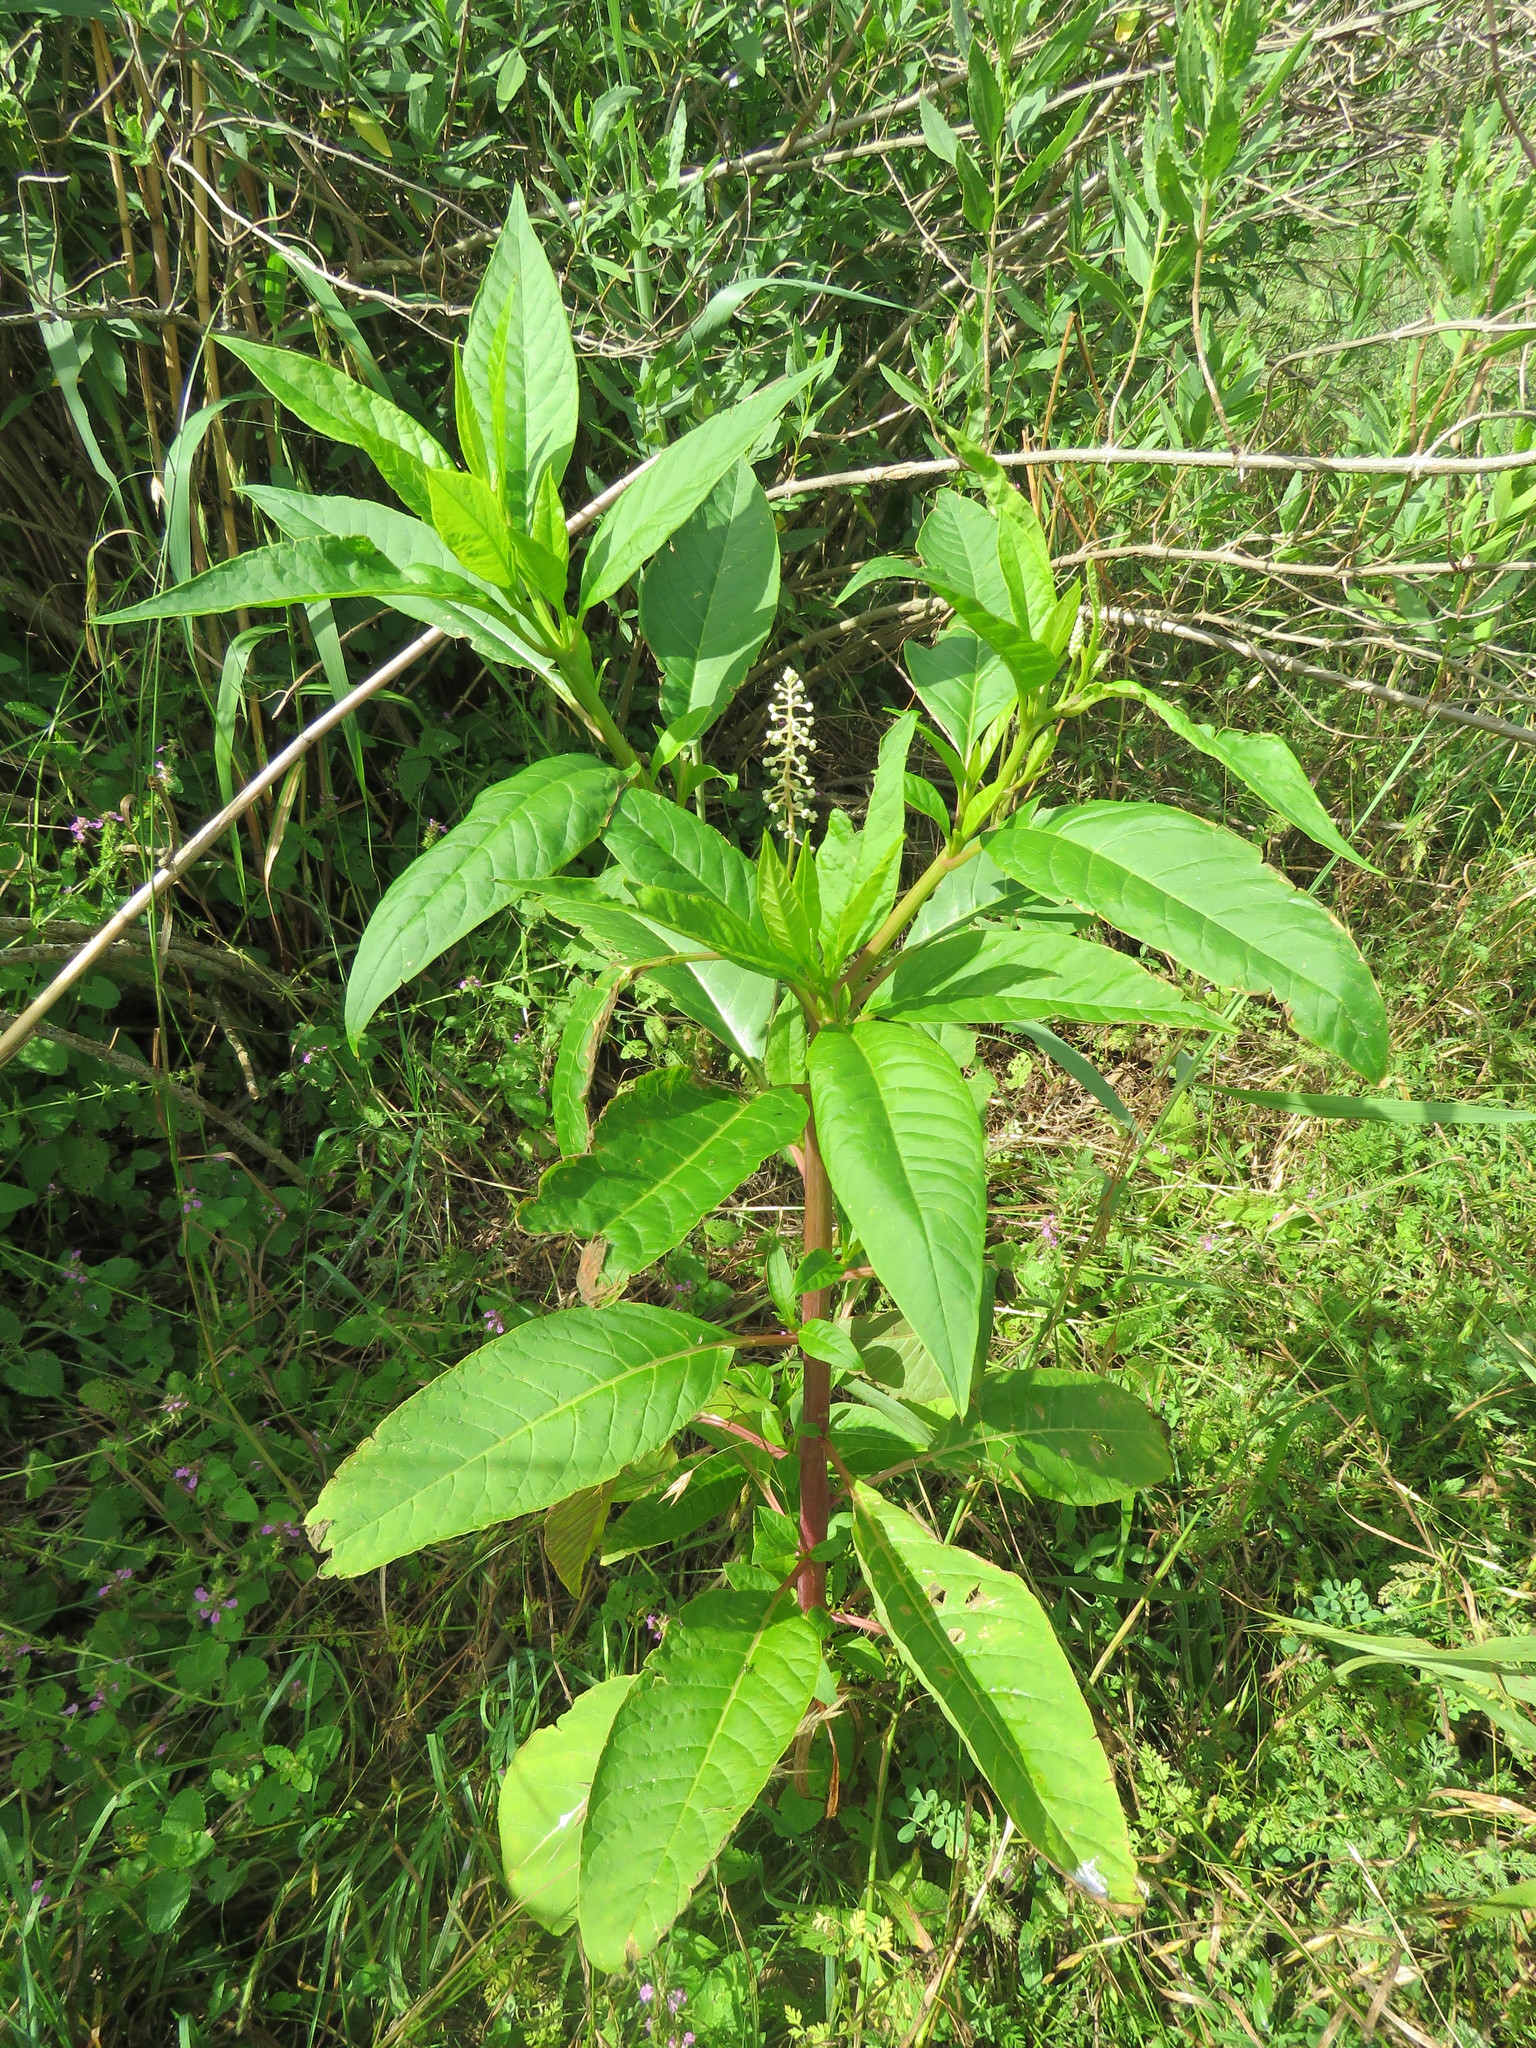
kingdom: Plantae
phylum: Tracheophyta
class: Magnoliopsida
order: Caryophyllales
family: Phytolaccaceae
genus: Phytolacca
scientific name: Phytolacca americana
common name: American pokeweed
